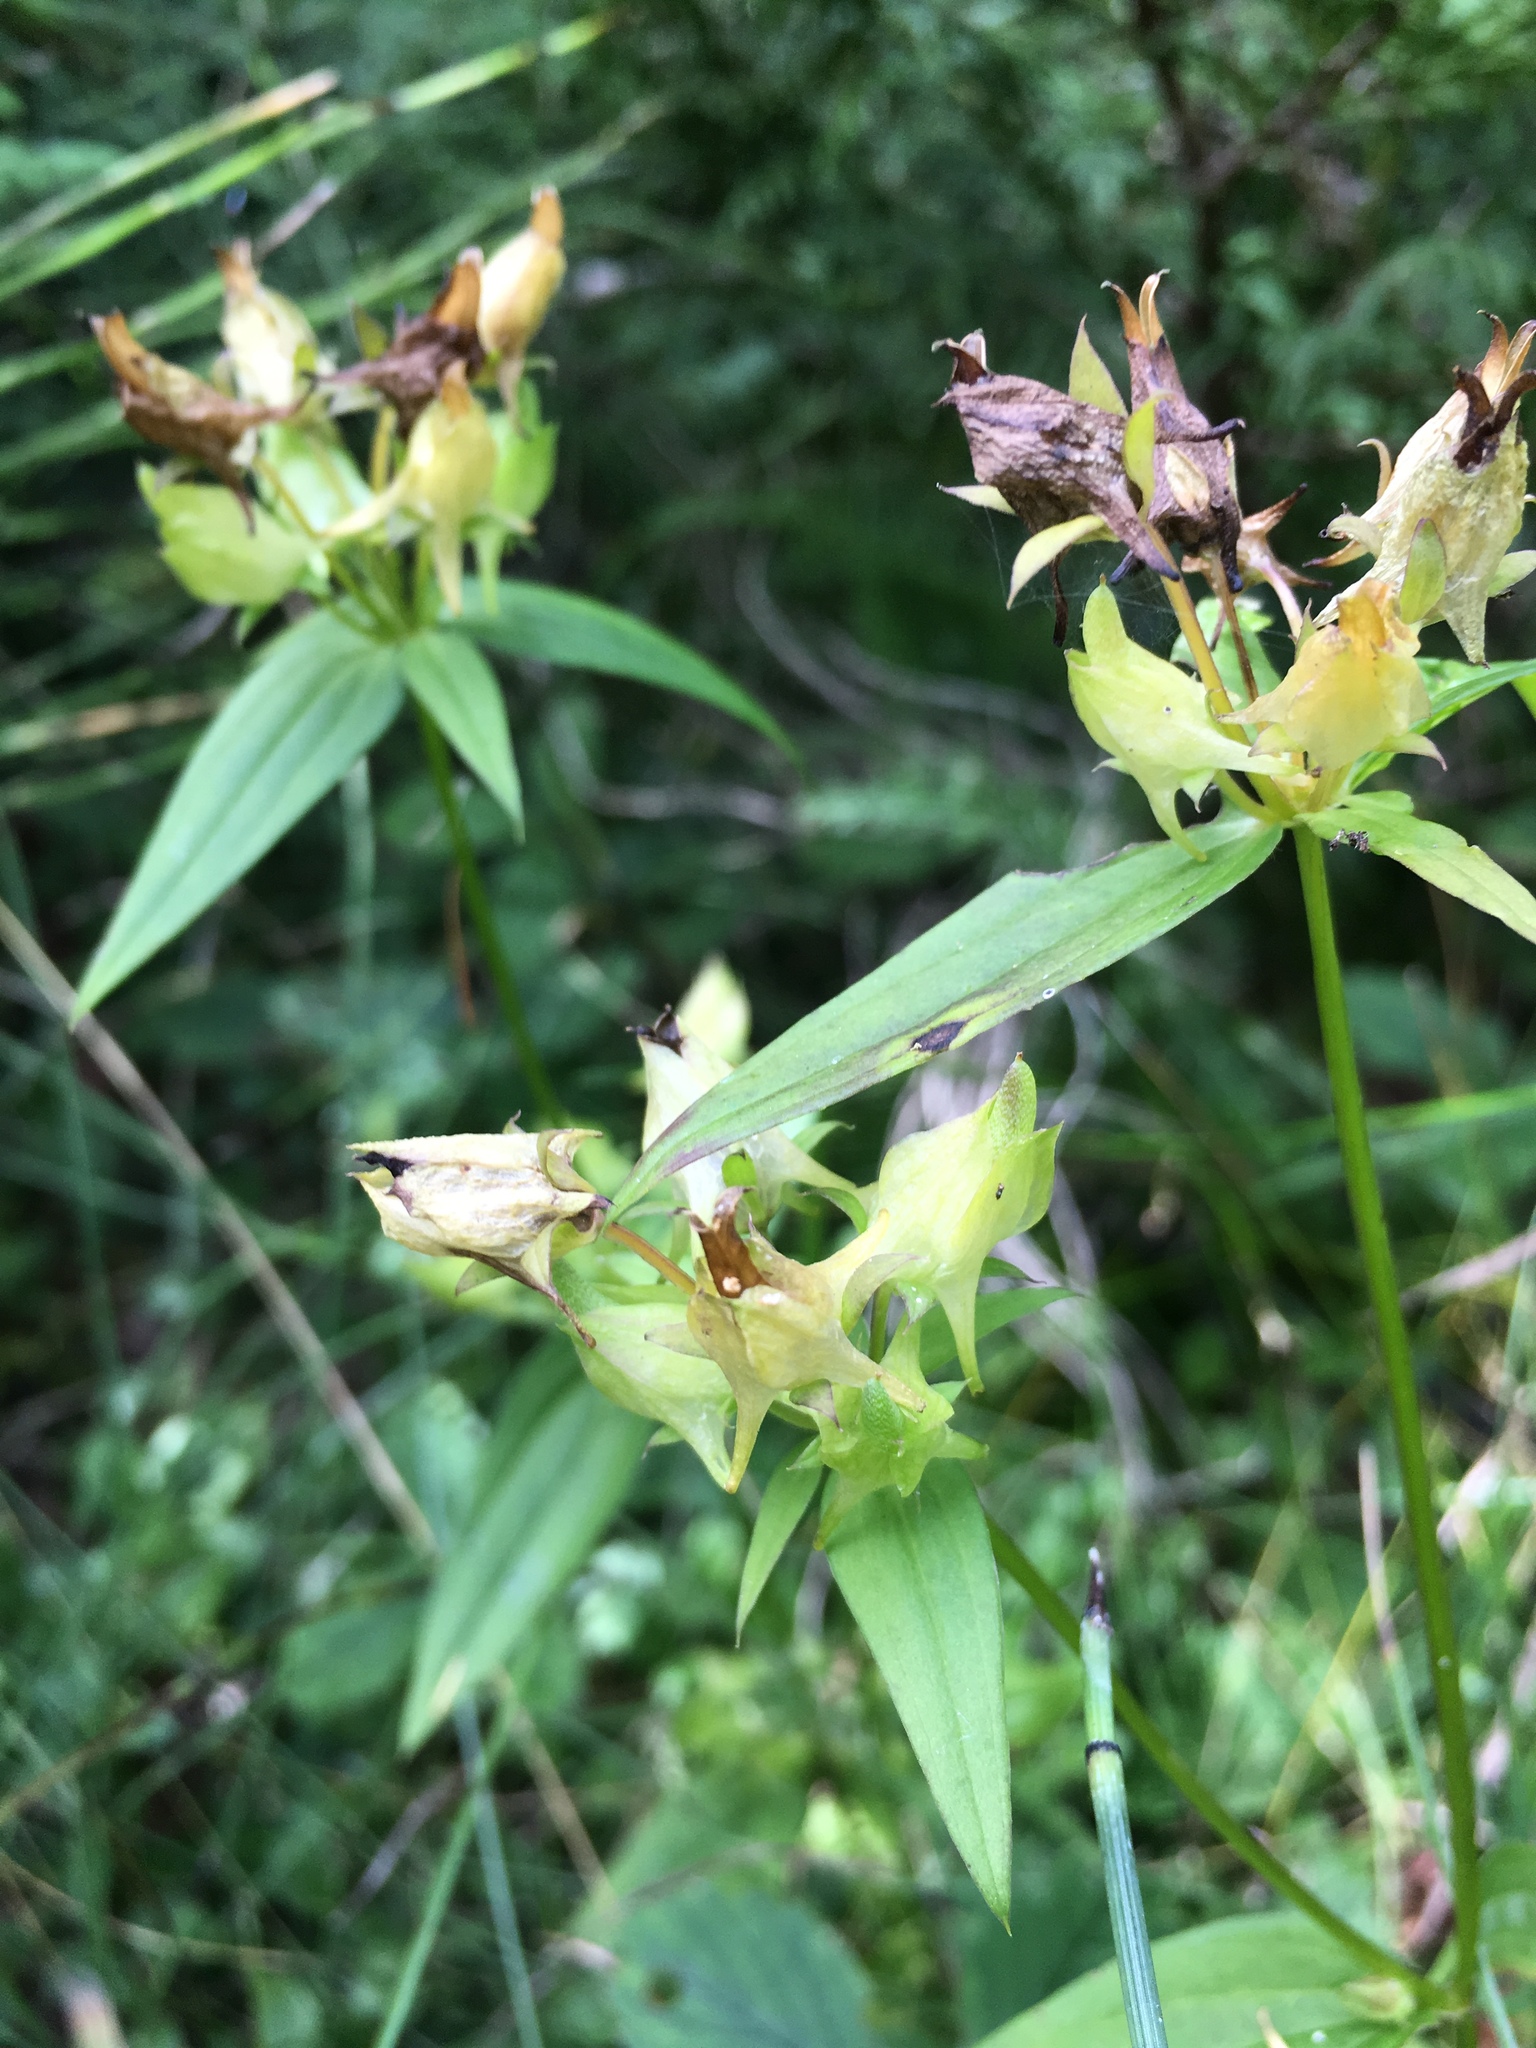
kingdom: Plantae
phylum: Tracheophyta
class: Magnoliopsida
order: Gentianales
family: Gentianaceae
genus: Halenia
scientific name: Halenia deflexa
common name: American spurred gentian
